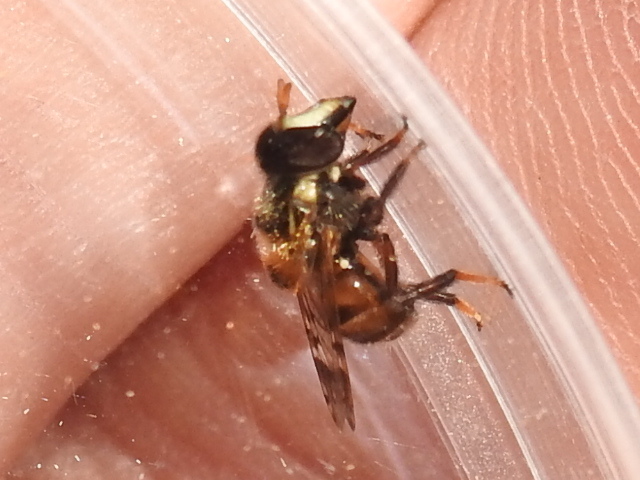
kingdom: Animalia
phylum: Arthropoda
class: Insecta
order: Diptera
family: Syrphidae
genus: Copestylum
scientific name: Copestylum tamaulipanum
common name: Syrphid fly
